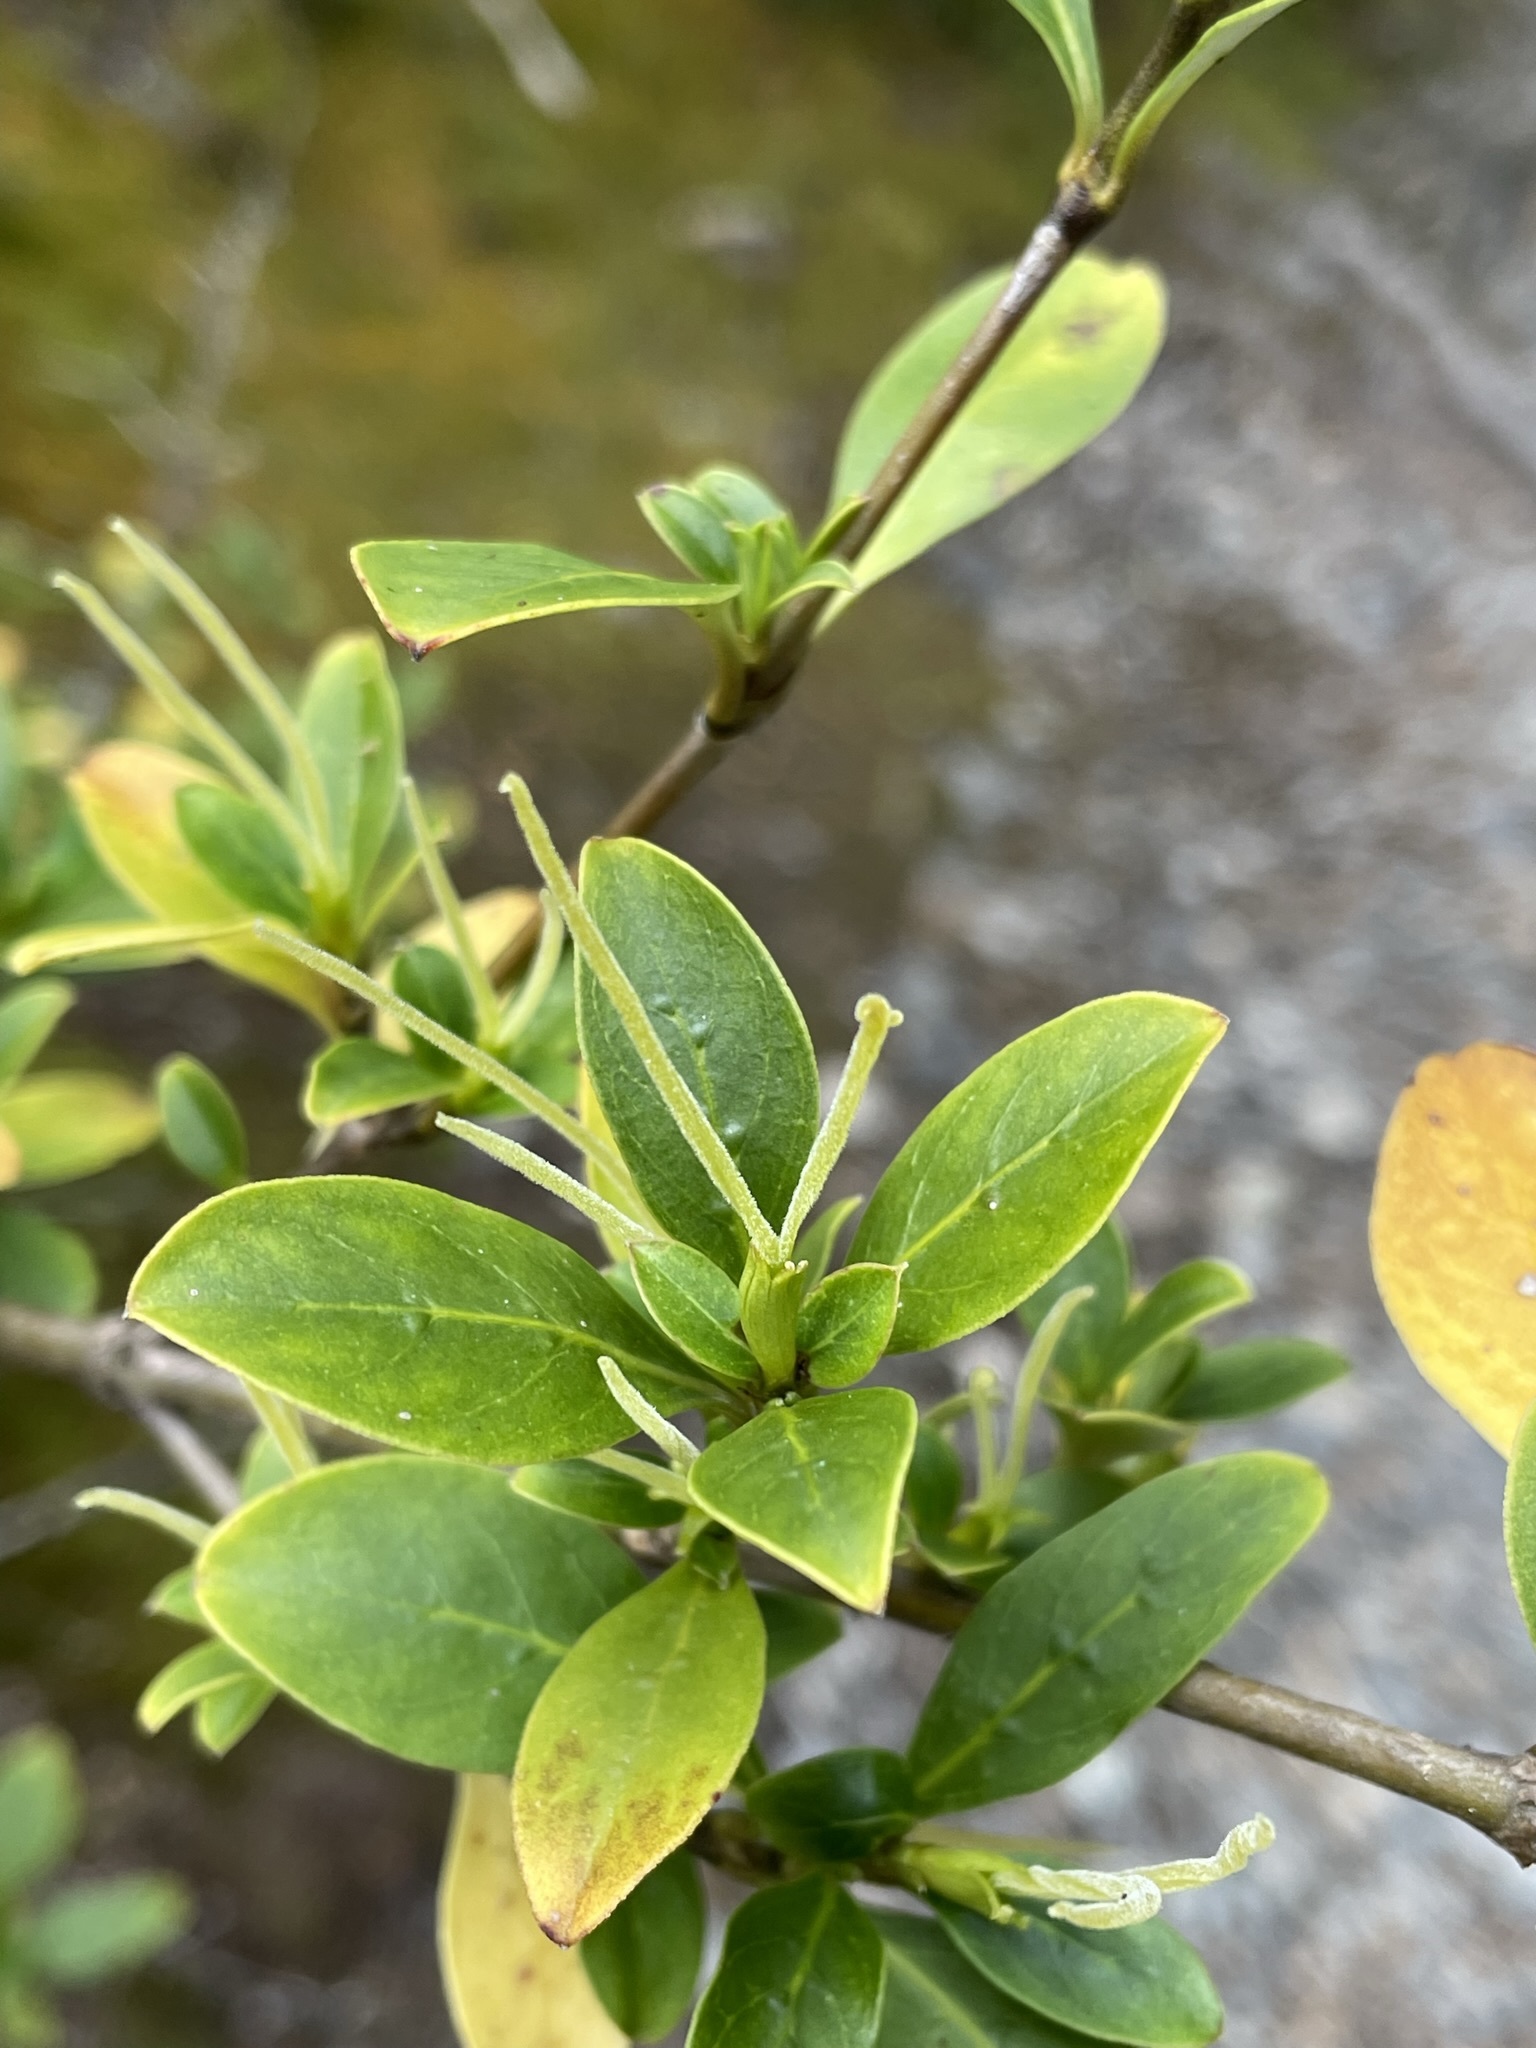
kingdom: Plantae
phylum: Tracheophyta
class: Magnoliopsida
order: Gentianales
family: Rubiaceae
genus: Coprosma
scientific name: Coprosma foetidissima
